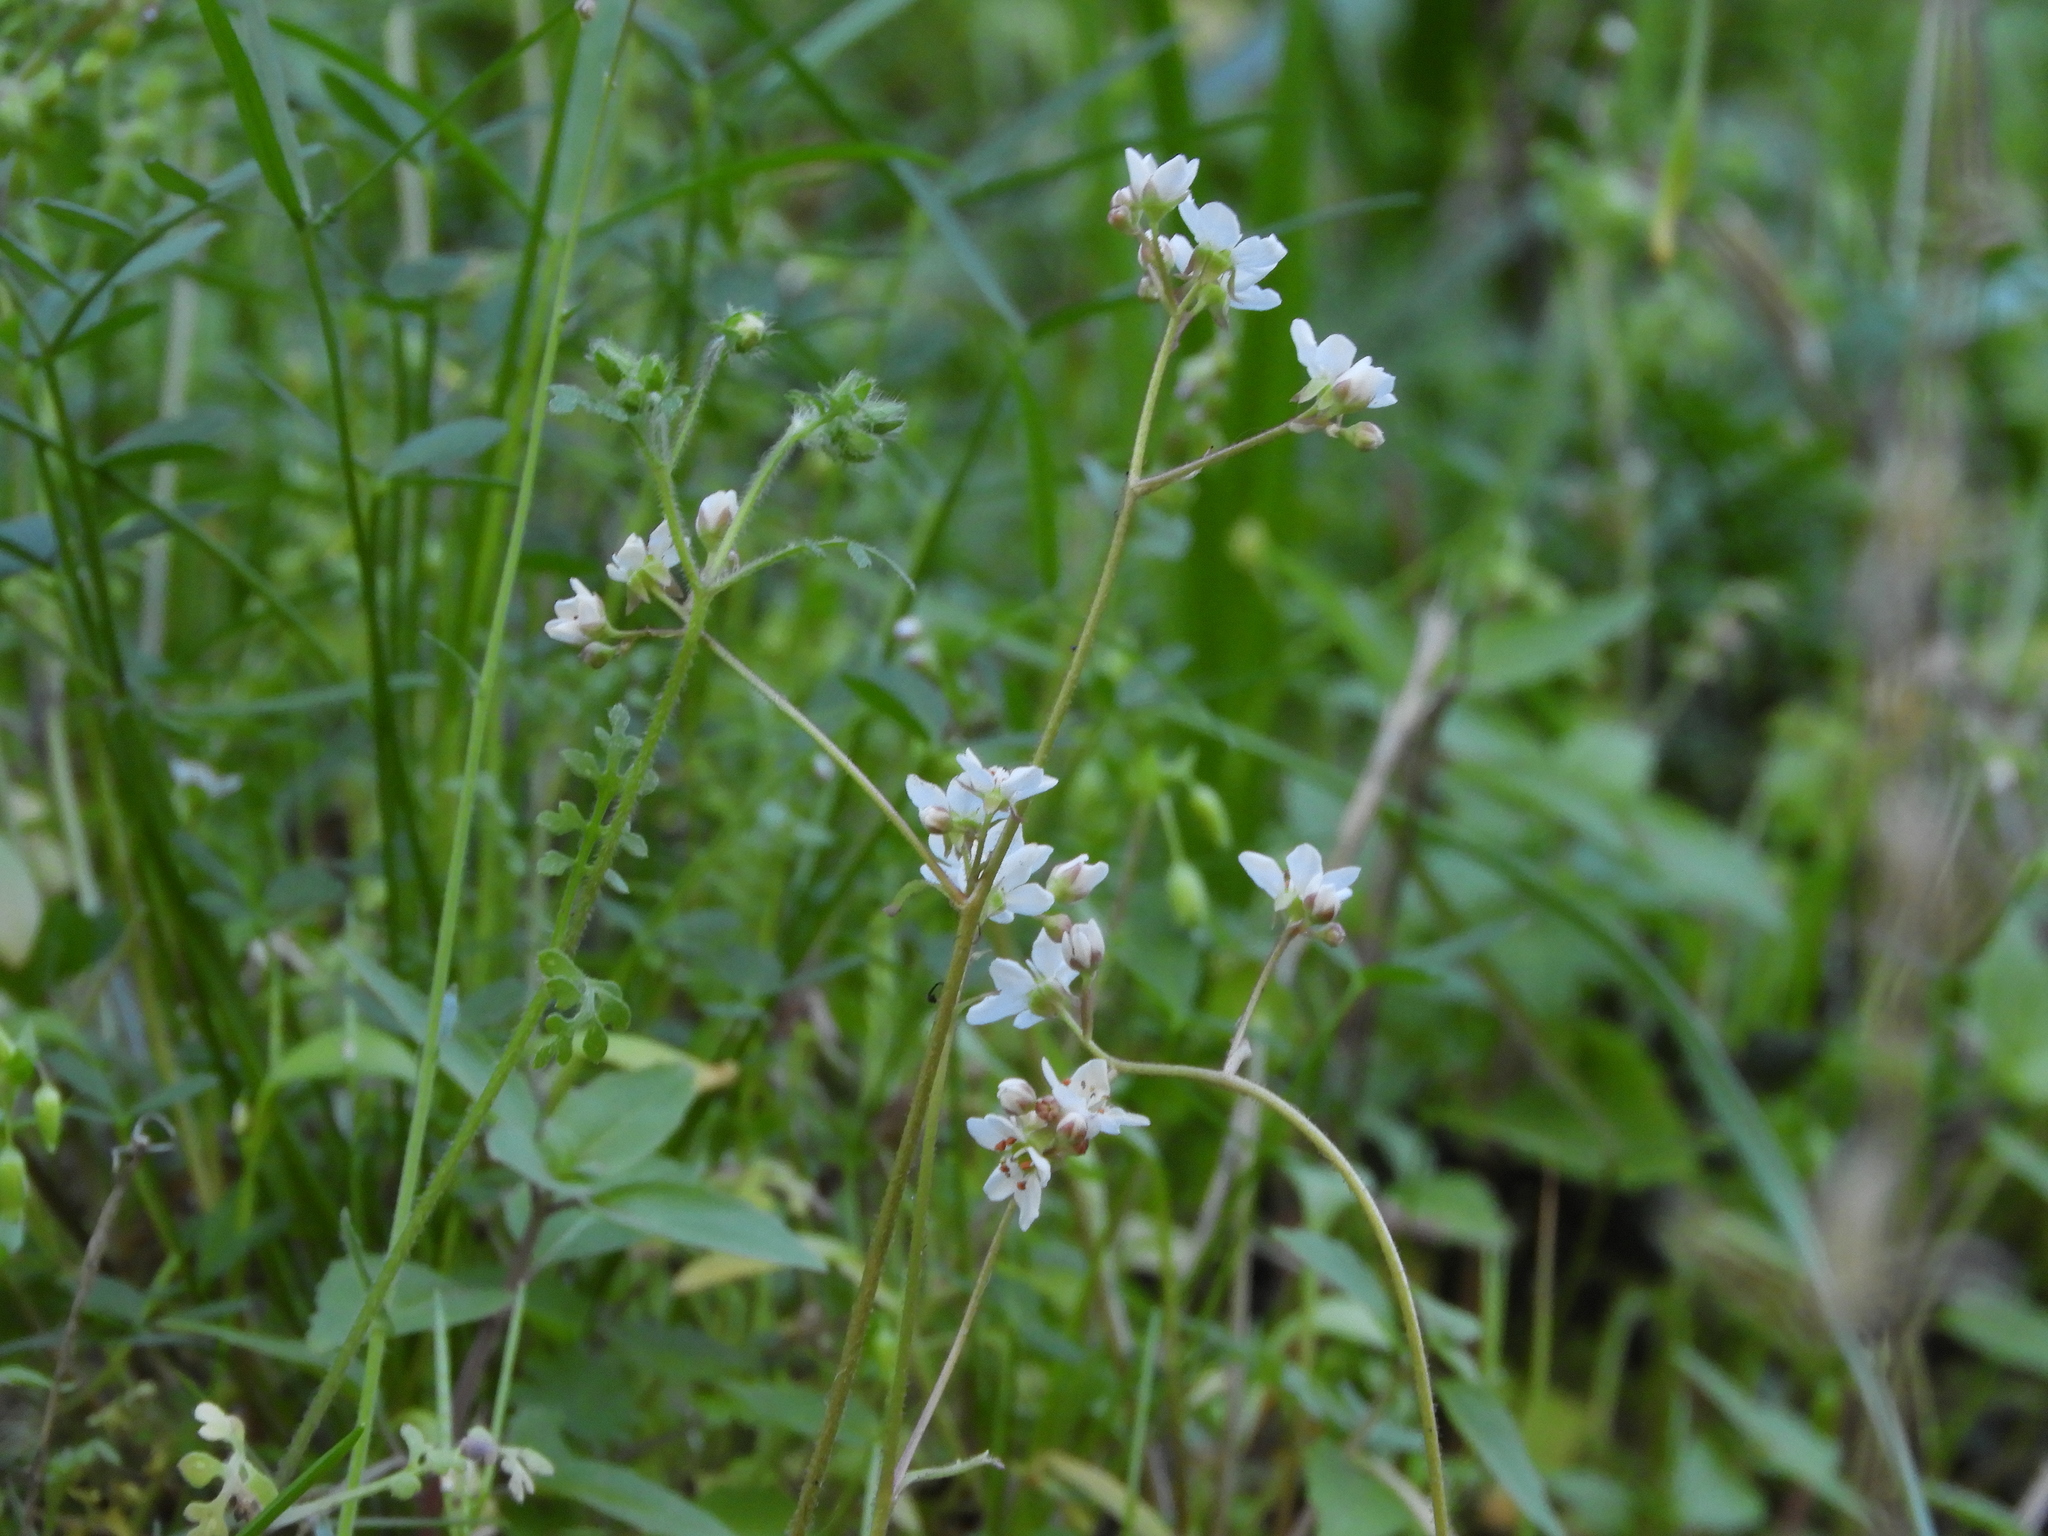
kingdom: Plantae
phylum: Tracheophyta
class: Magnoliopsida
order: Saxifragales
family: Saxifragaceae
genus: Micranthes
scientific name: Micranthes californica
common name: California saxifrage
